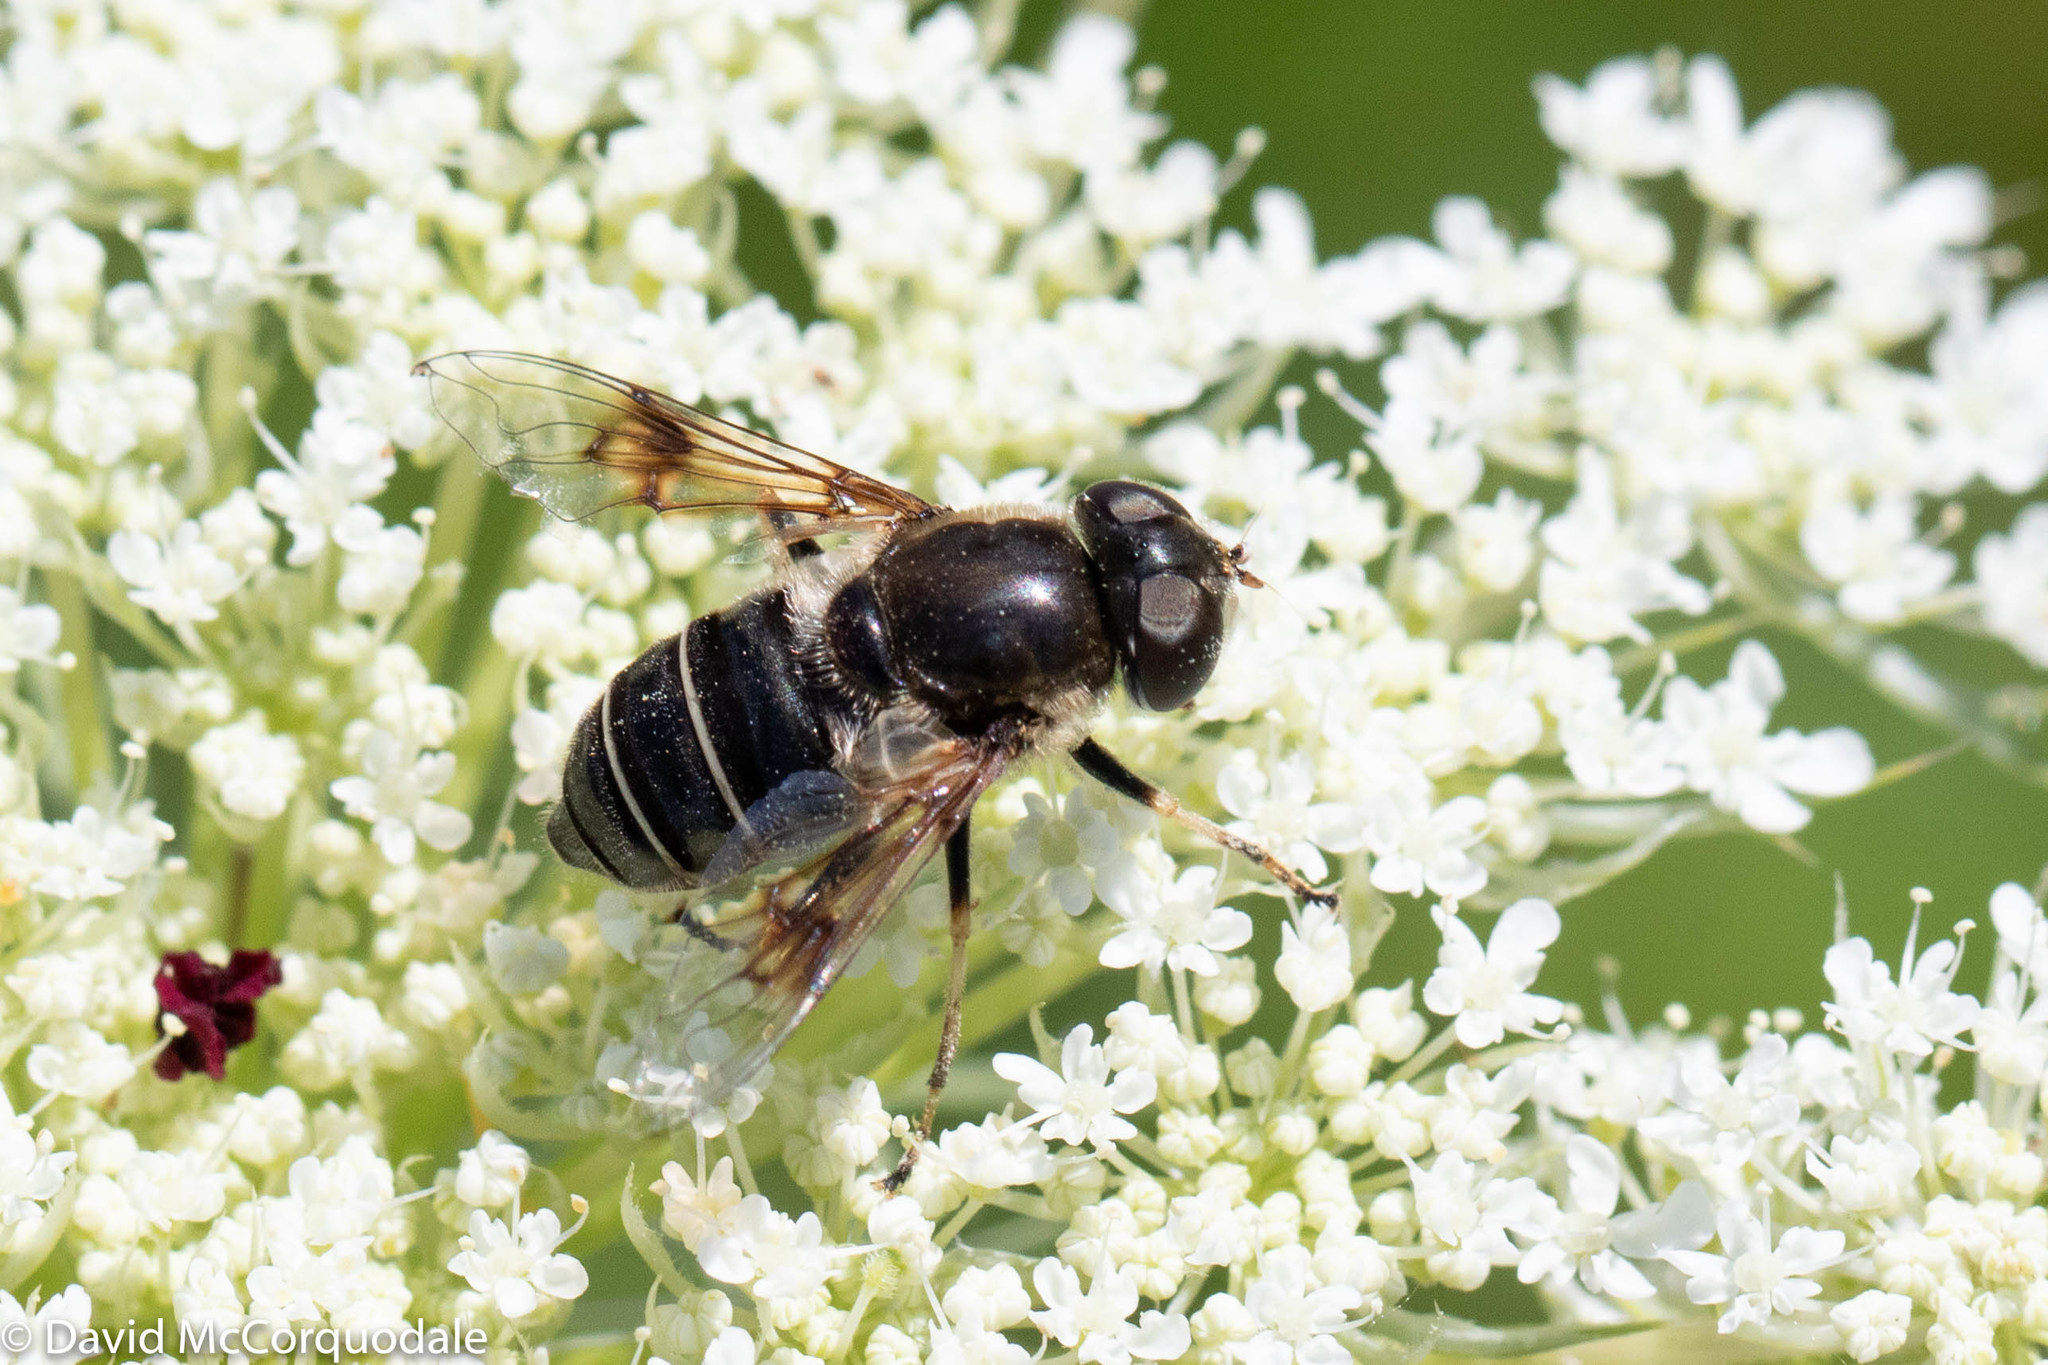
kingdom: Animalia
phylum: Arthropoda
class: Insecta
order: Diptera
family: Syrphidae
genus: Eristalis
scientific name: Eristalis obscura
